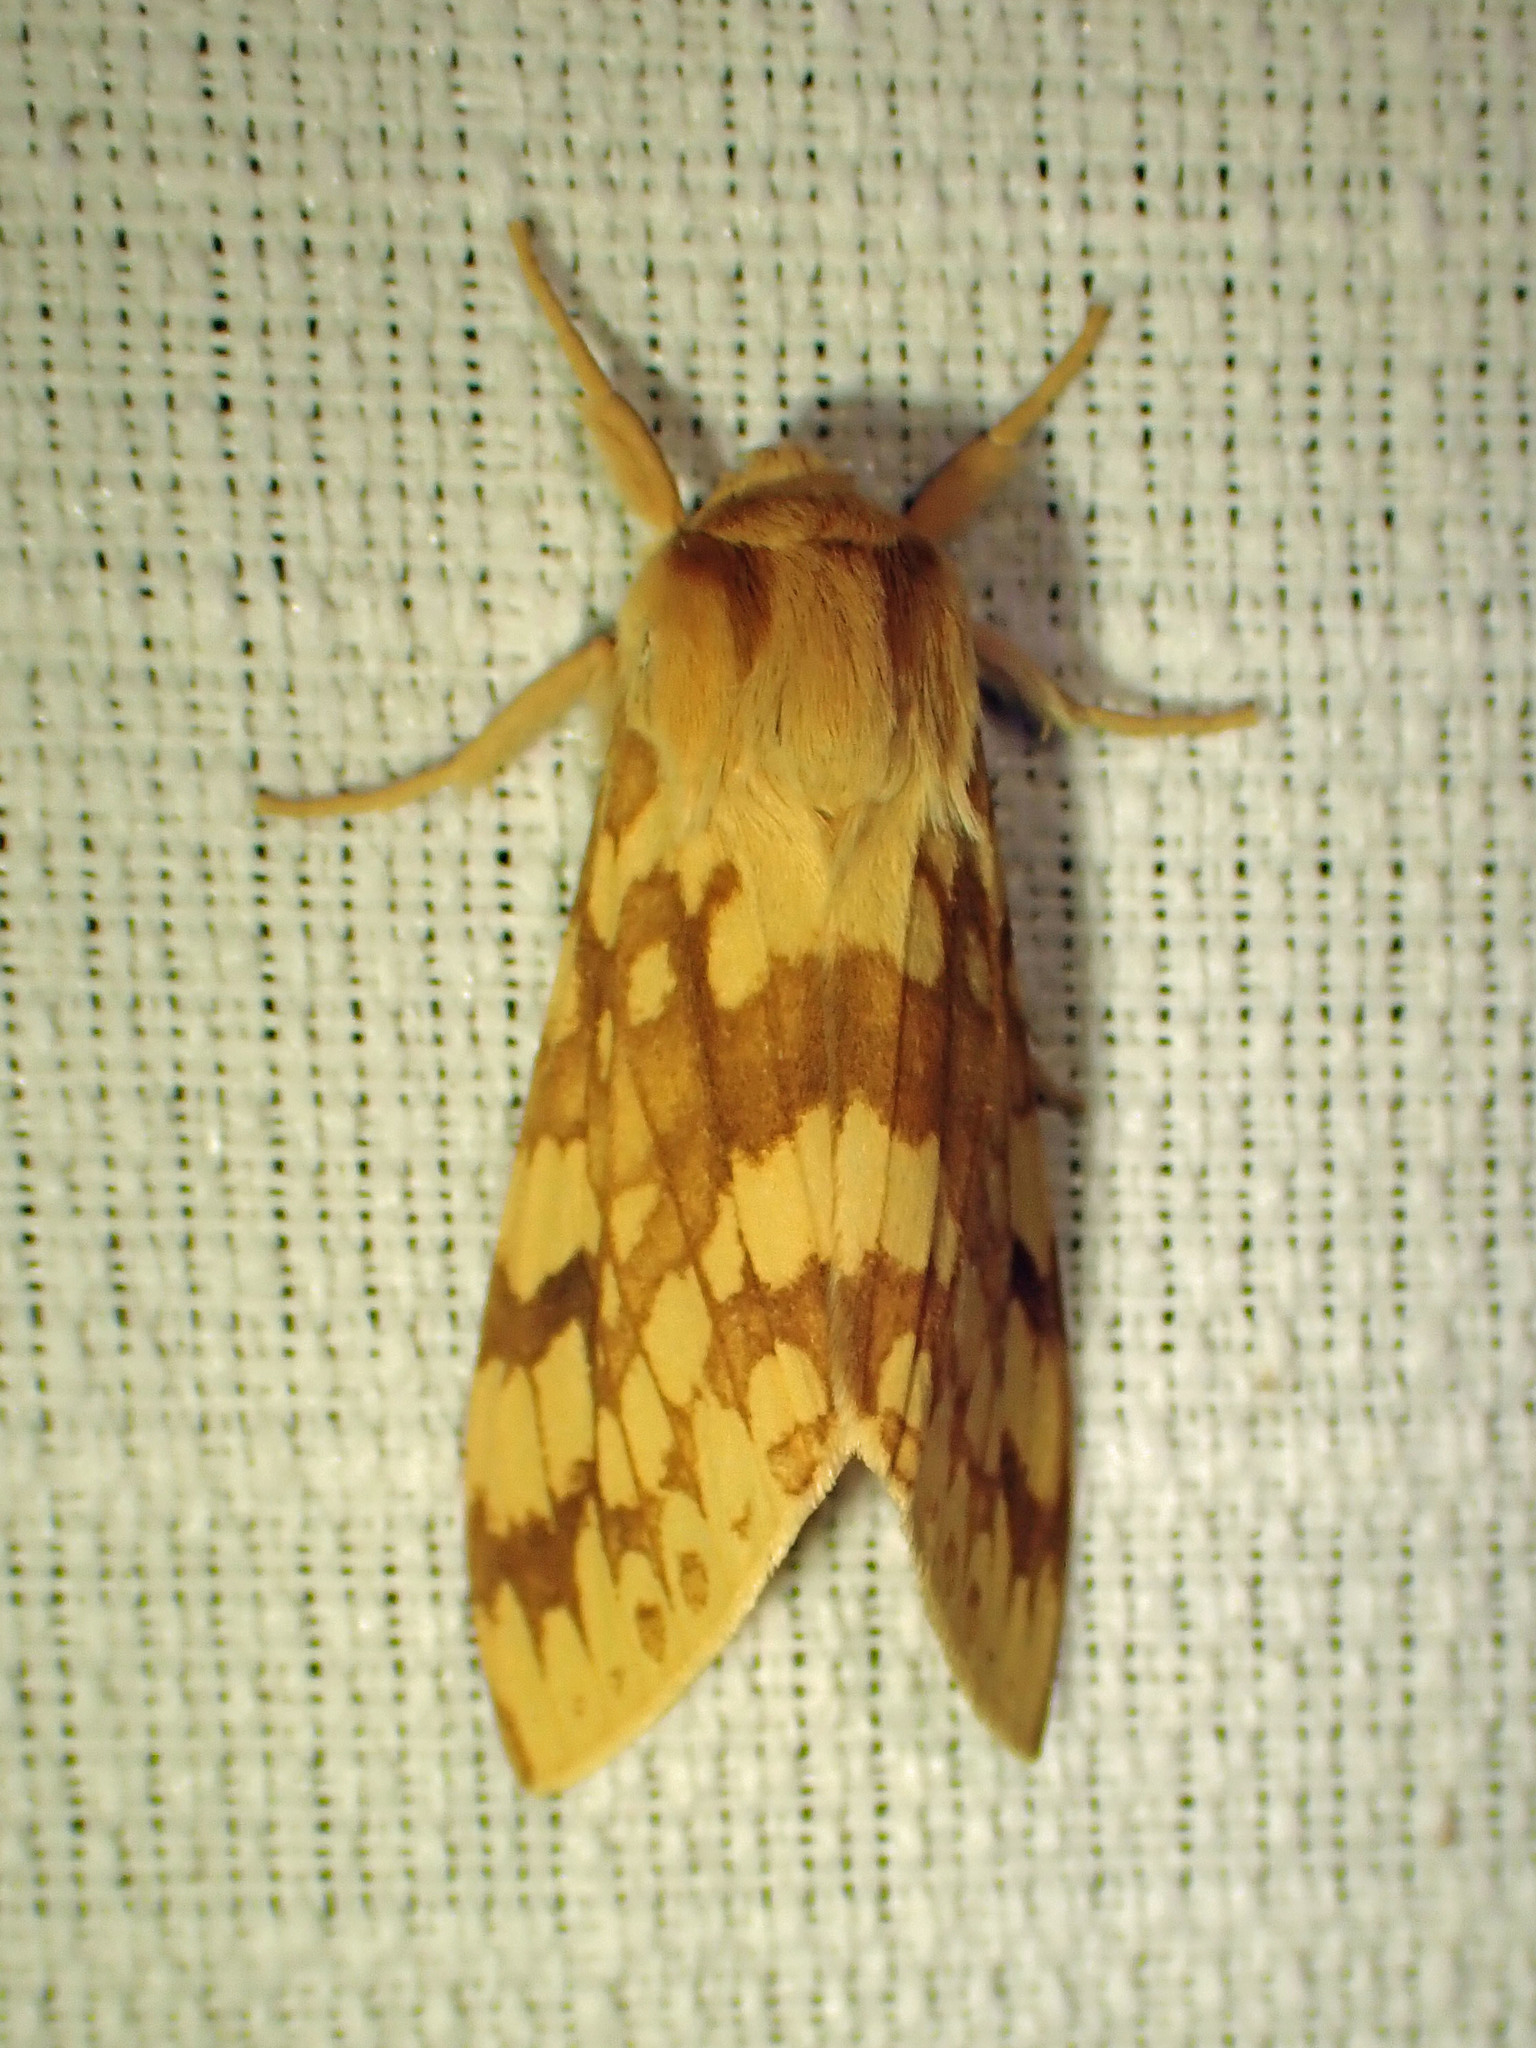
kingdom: Animalia
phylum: Arthropoda
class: Insecta
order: Lepidoptera
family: Erebidae
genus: Lophocampa
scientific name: Lophocampa maculata
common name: Spotted tussock moth
